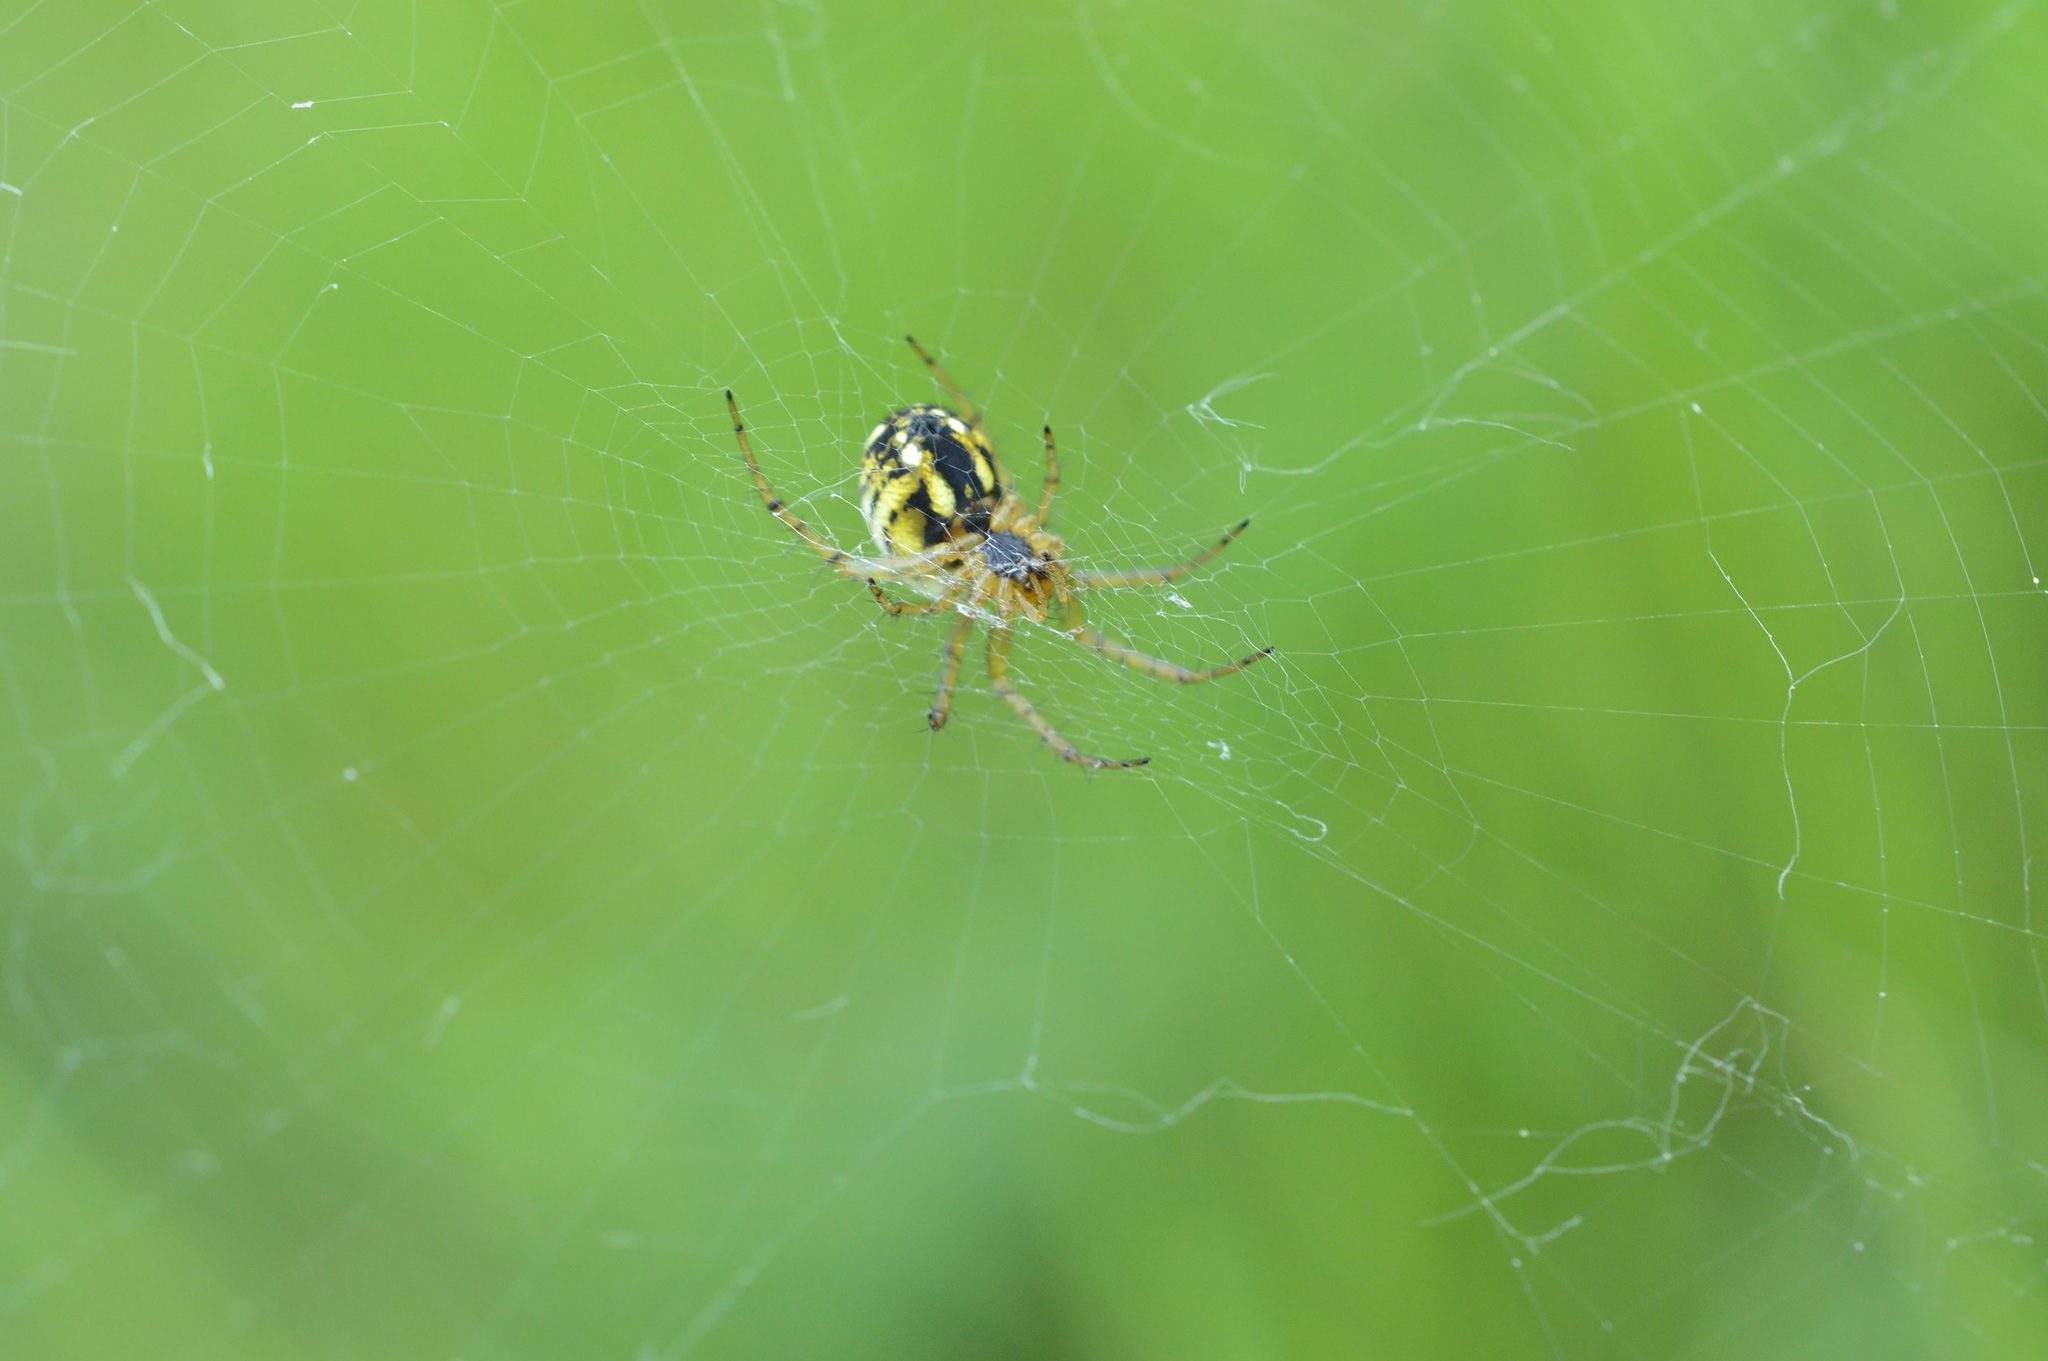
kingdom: Animalia
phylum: Arthropoda
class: Arachnida
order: Araneae
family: Araneidae
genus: Mangora
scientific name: Mangora acalypha
